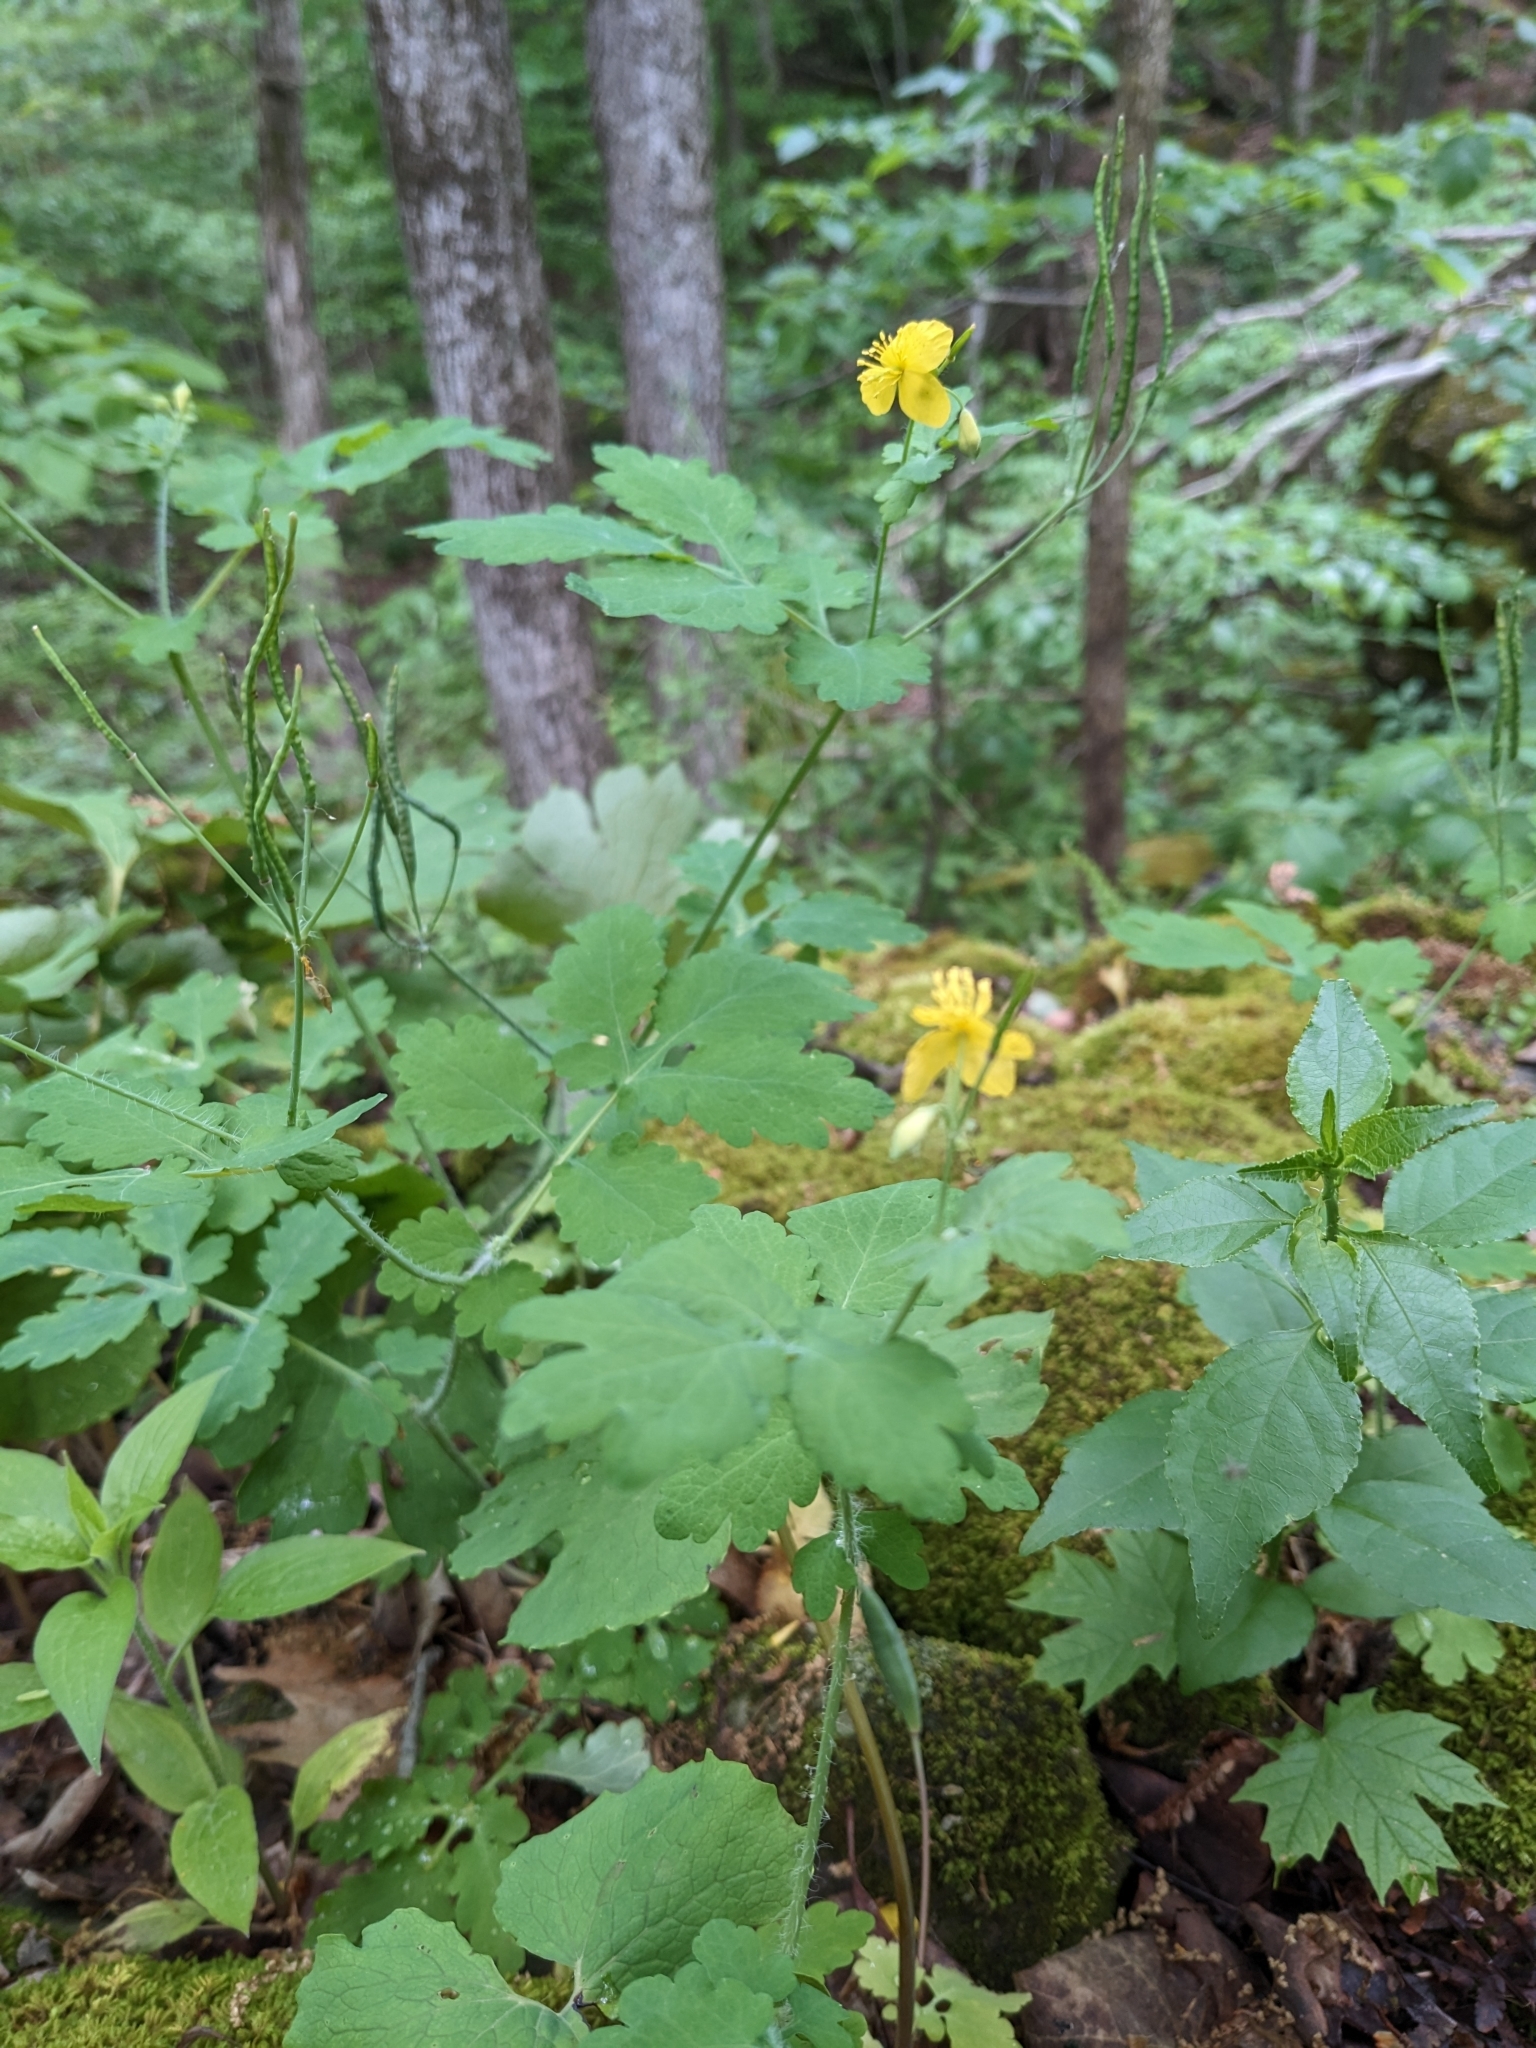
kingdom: Plantae
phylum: Tracheophyta
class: Magnoliopsida
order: Ranunculales
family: Papaveraceae
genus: Chelidonium
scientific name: Chelidonium majus
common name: Greater celandine
